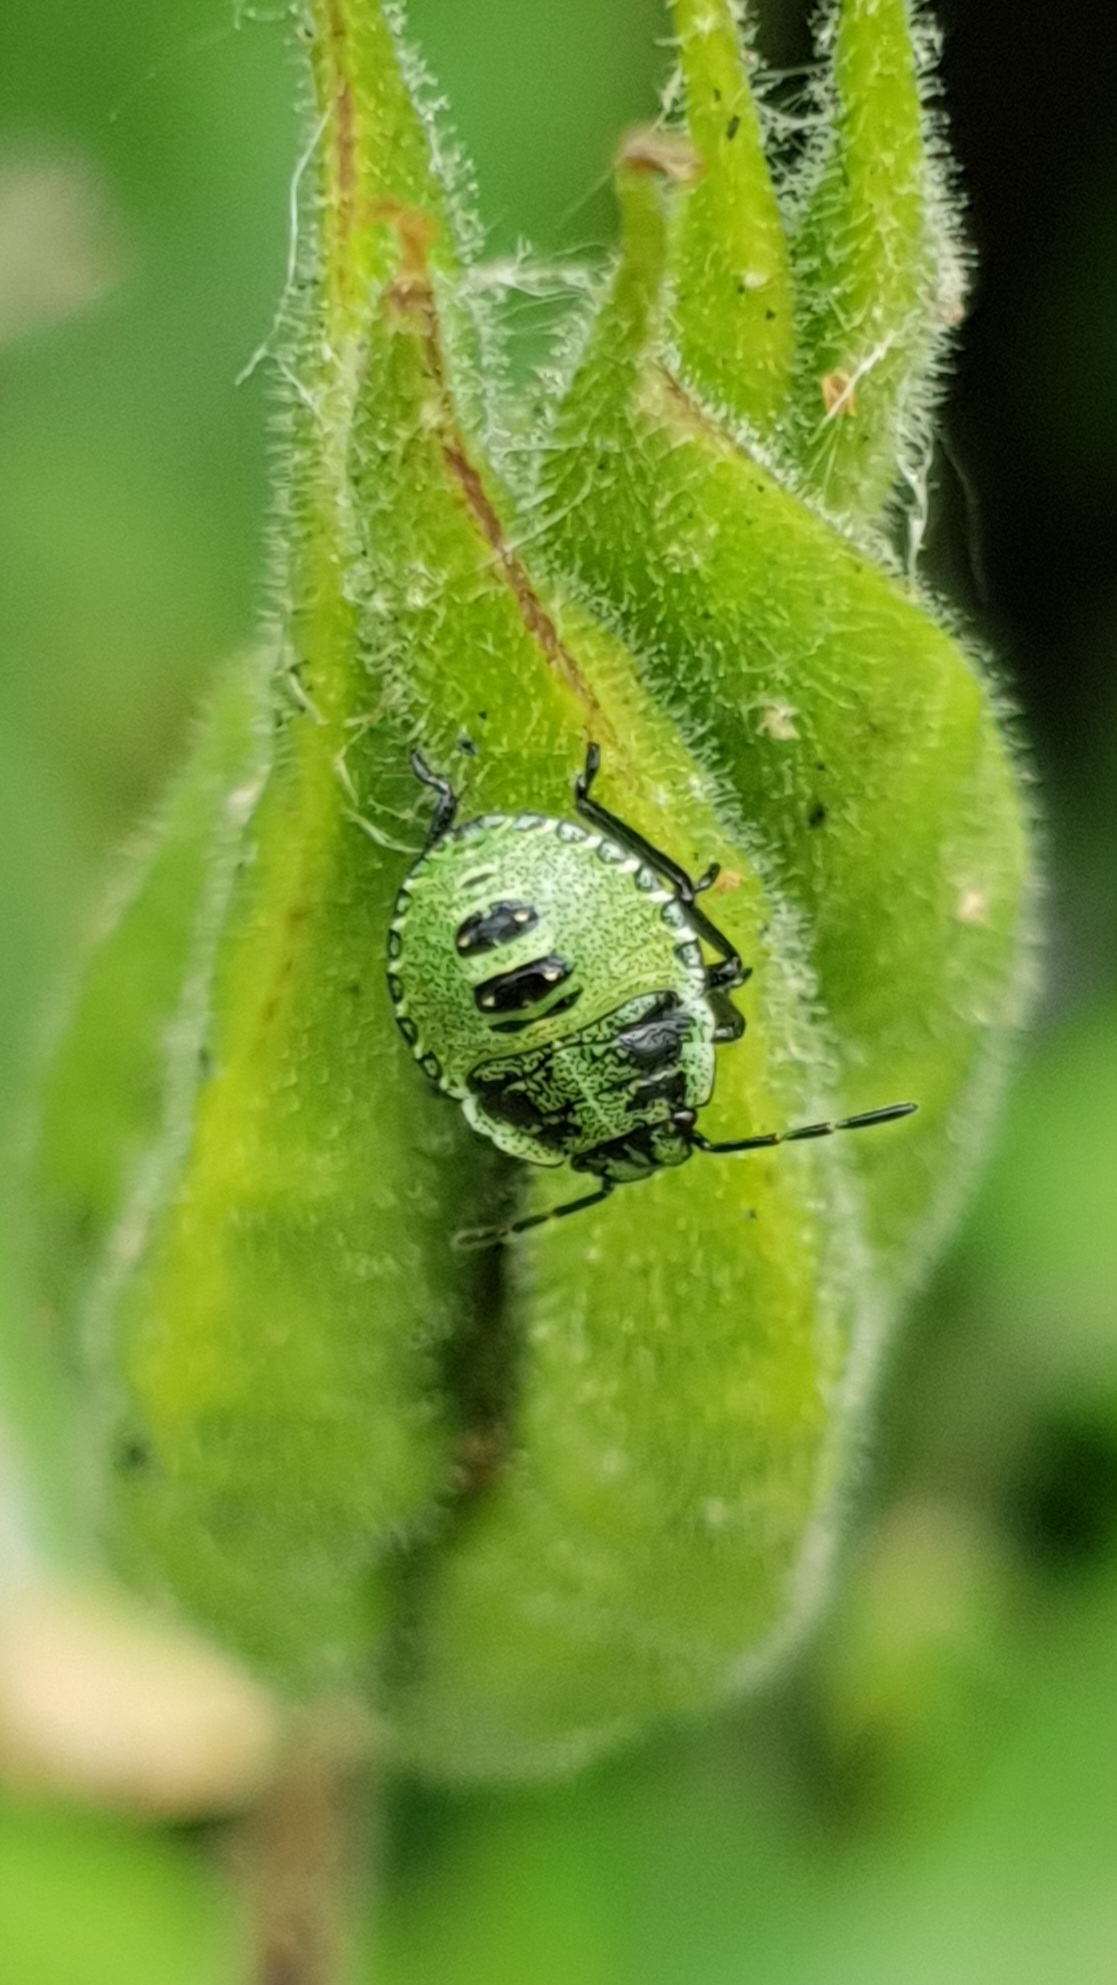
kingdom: Animalia
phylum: Arthropoda
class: Insecta
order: Hemiptera
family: Pentatomidae
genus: Palomena
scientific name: Palomena prasina
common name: Green shieldbug
